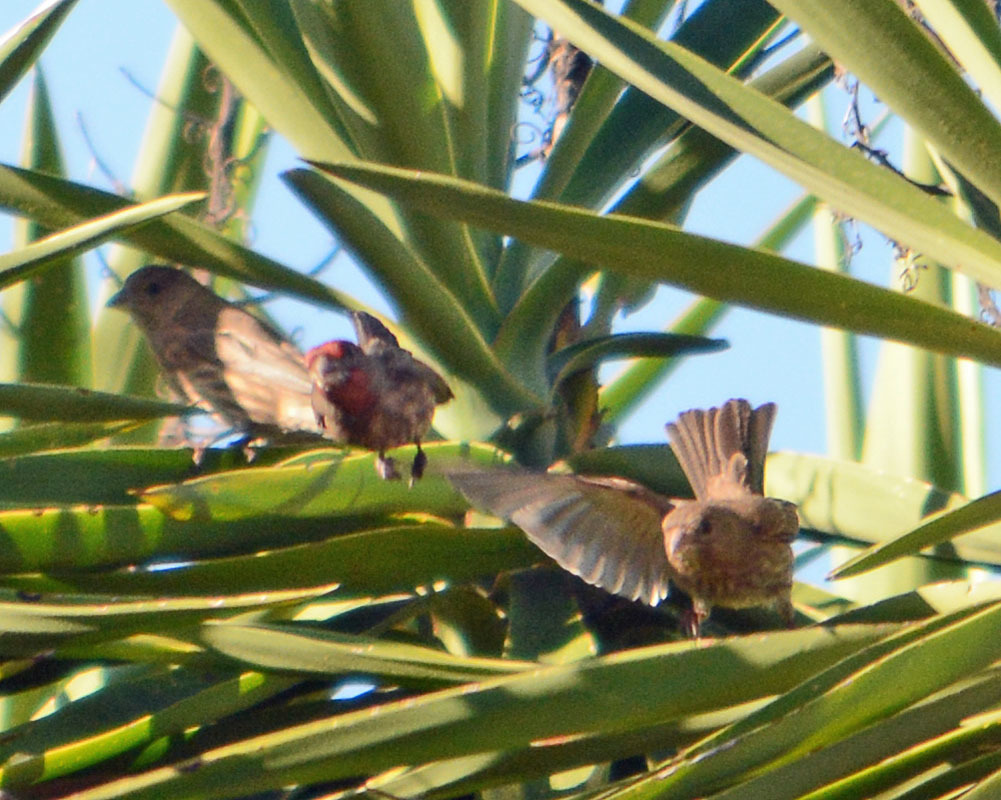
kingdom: Animalia
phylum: Chordata
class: Aves
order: Passeriformes
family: Fringillidae
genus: Haemorhous
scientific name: Haemorhous mexicanus
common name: House finch
